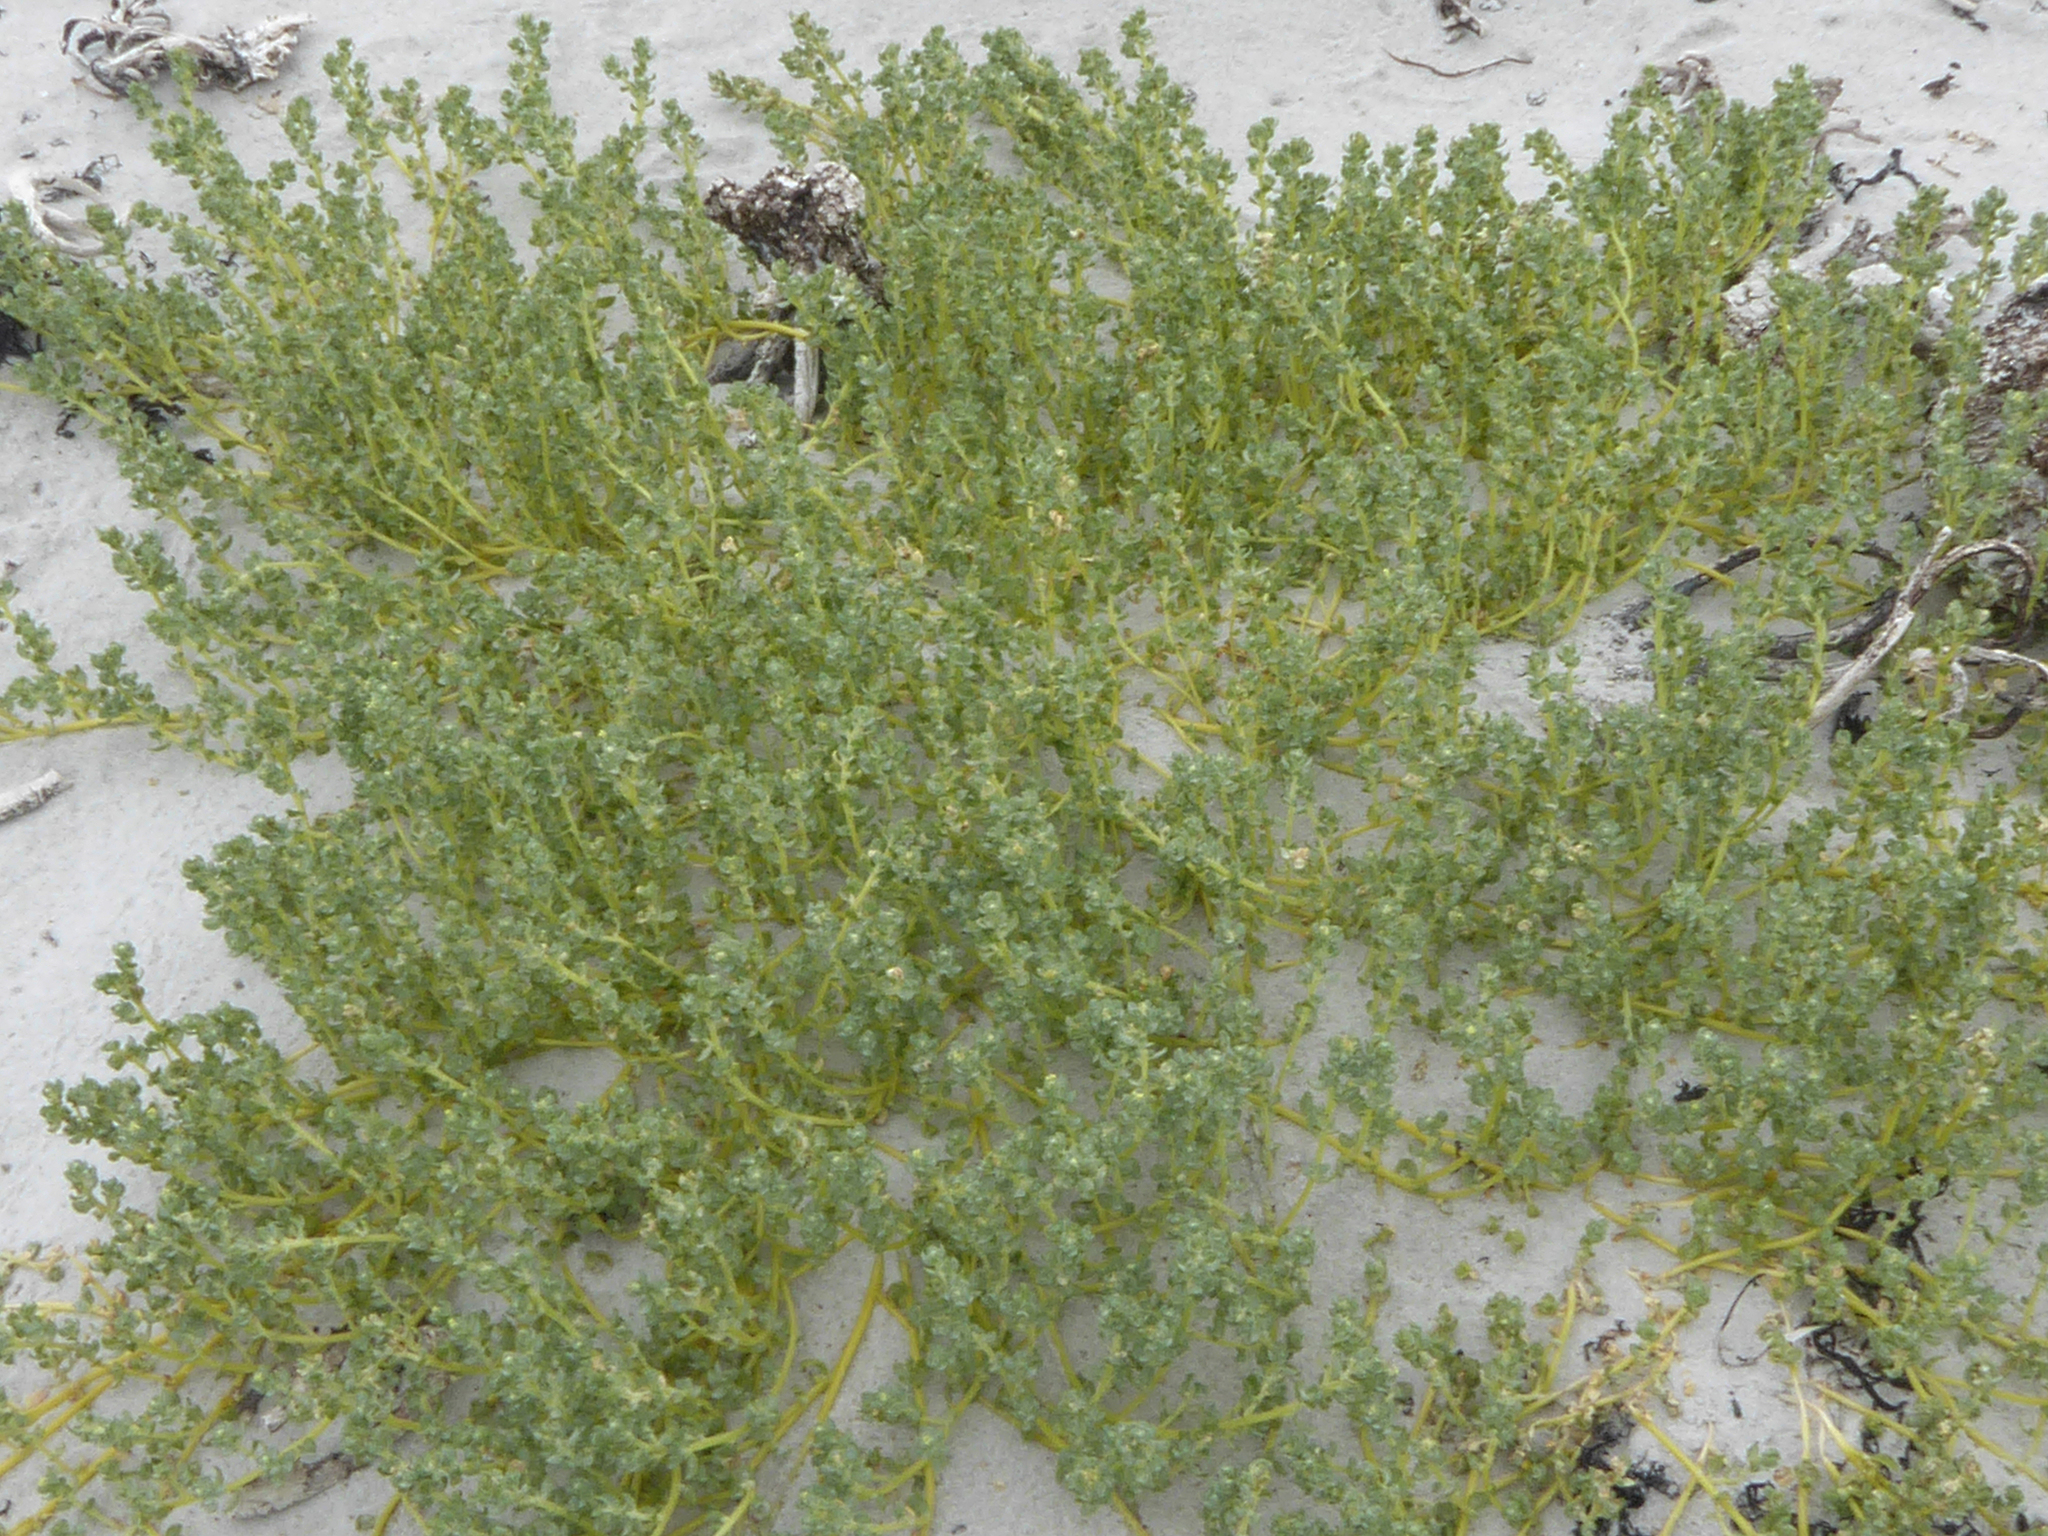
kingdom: Plantae
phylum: Tracheophyta
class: Magnoliopsida
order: Caryophyllales
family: Amaranthaceae
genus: Atriplex
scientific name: Atriplex billardierei
